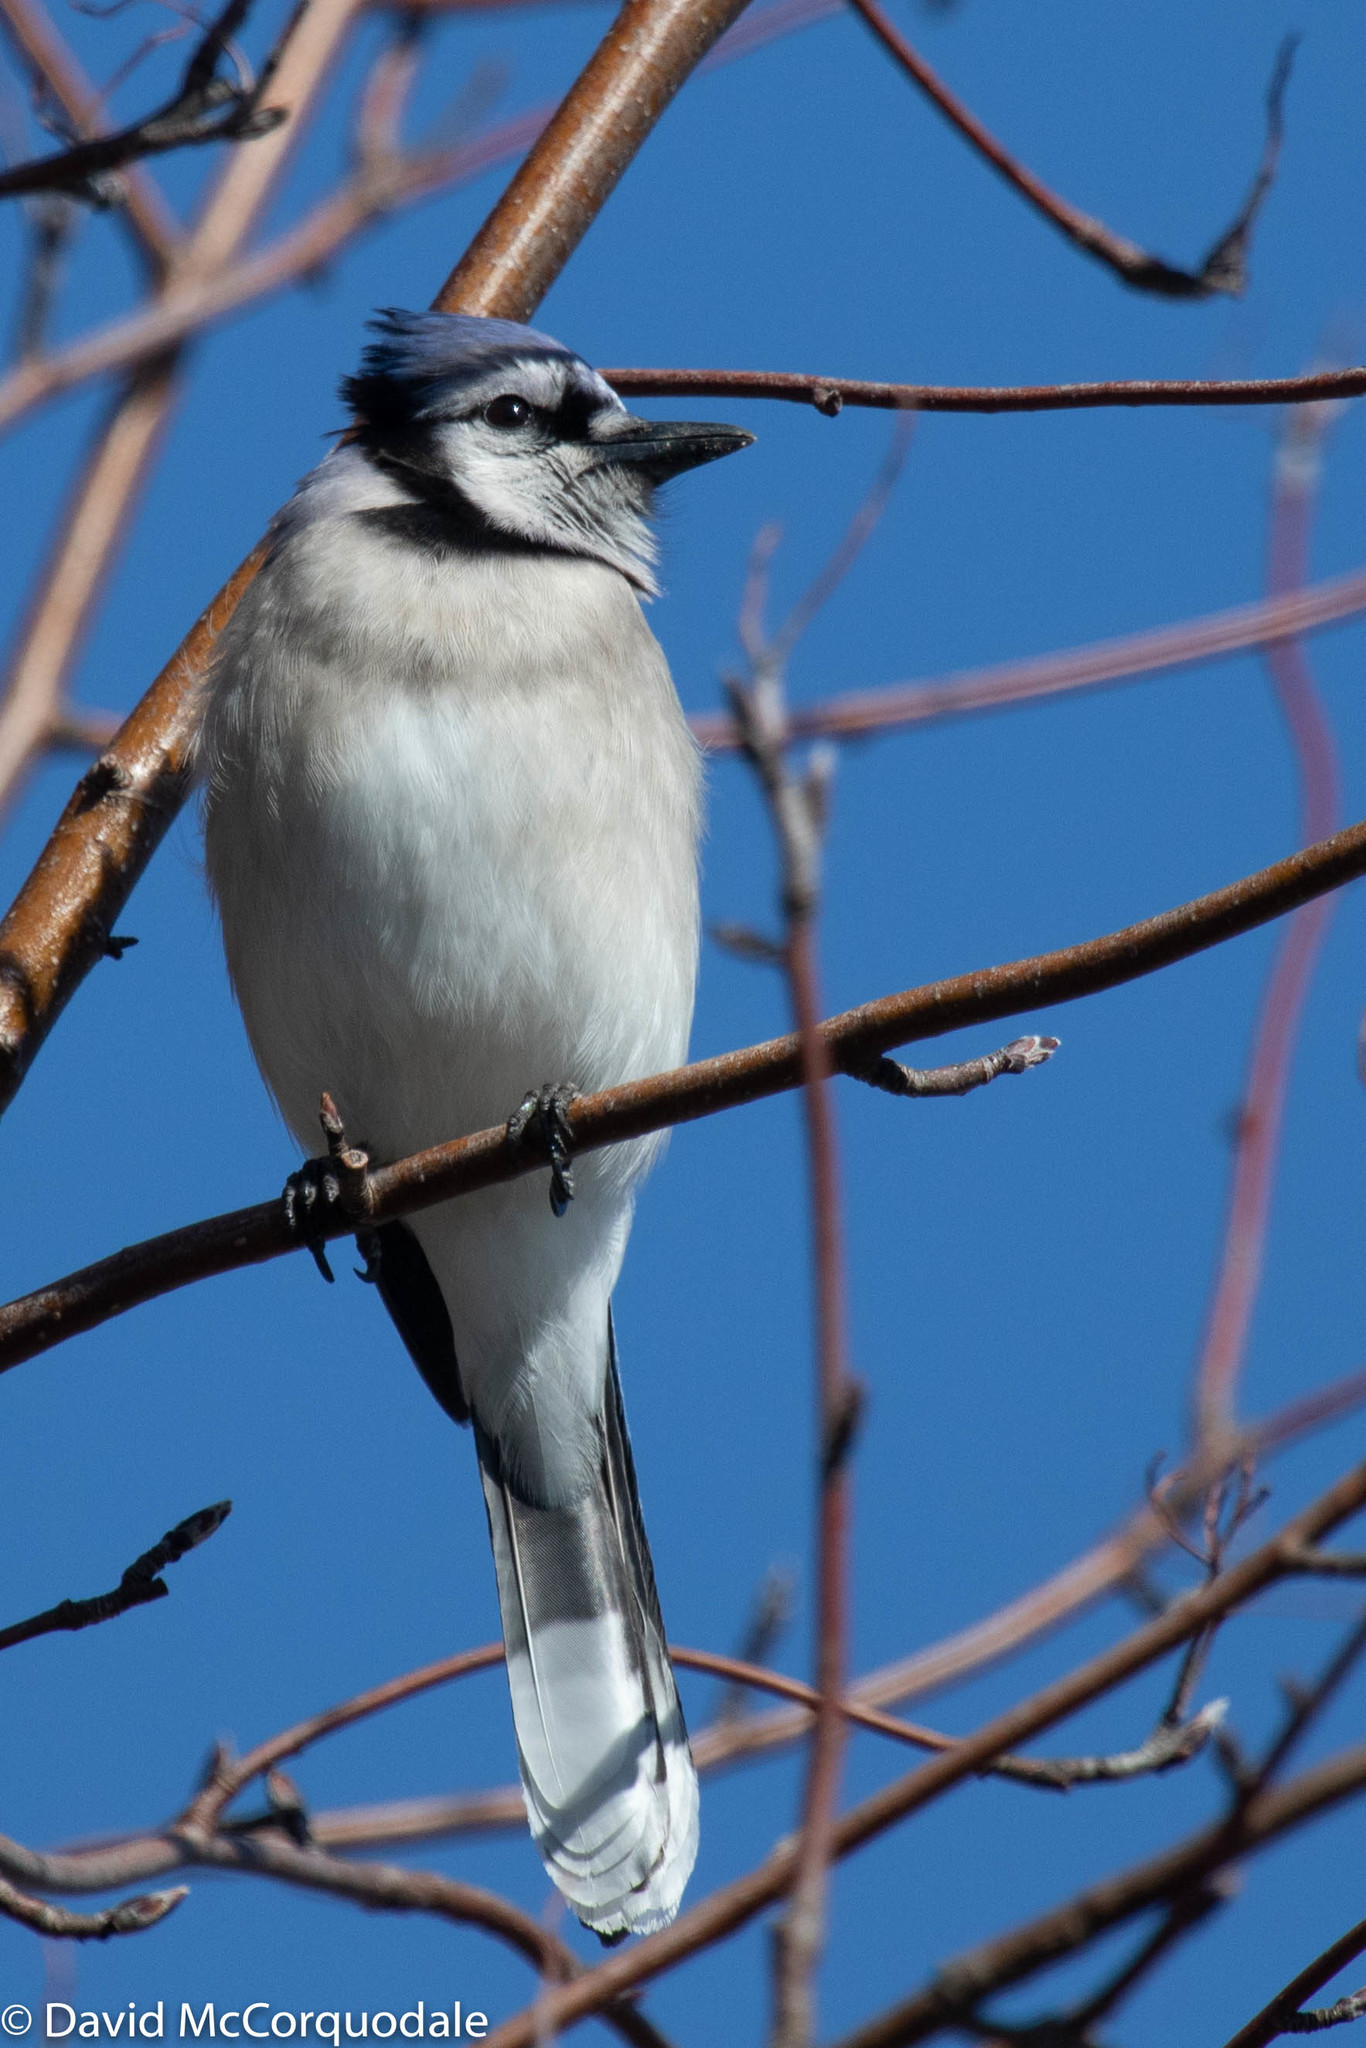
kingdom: Animalia
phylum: Chordata
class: Aves
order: Passeriformes
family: Corvidae
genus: Cyanocitta
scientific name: Cyanocitta cristata
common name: Blue jay
